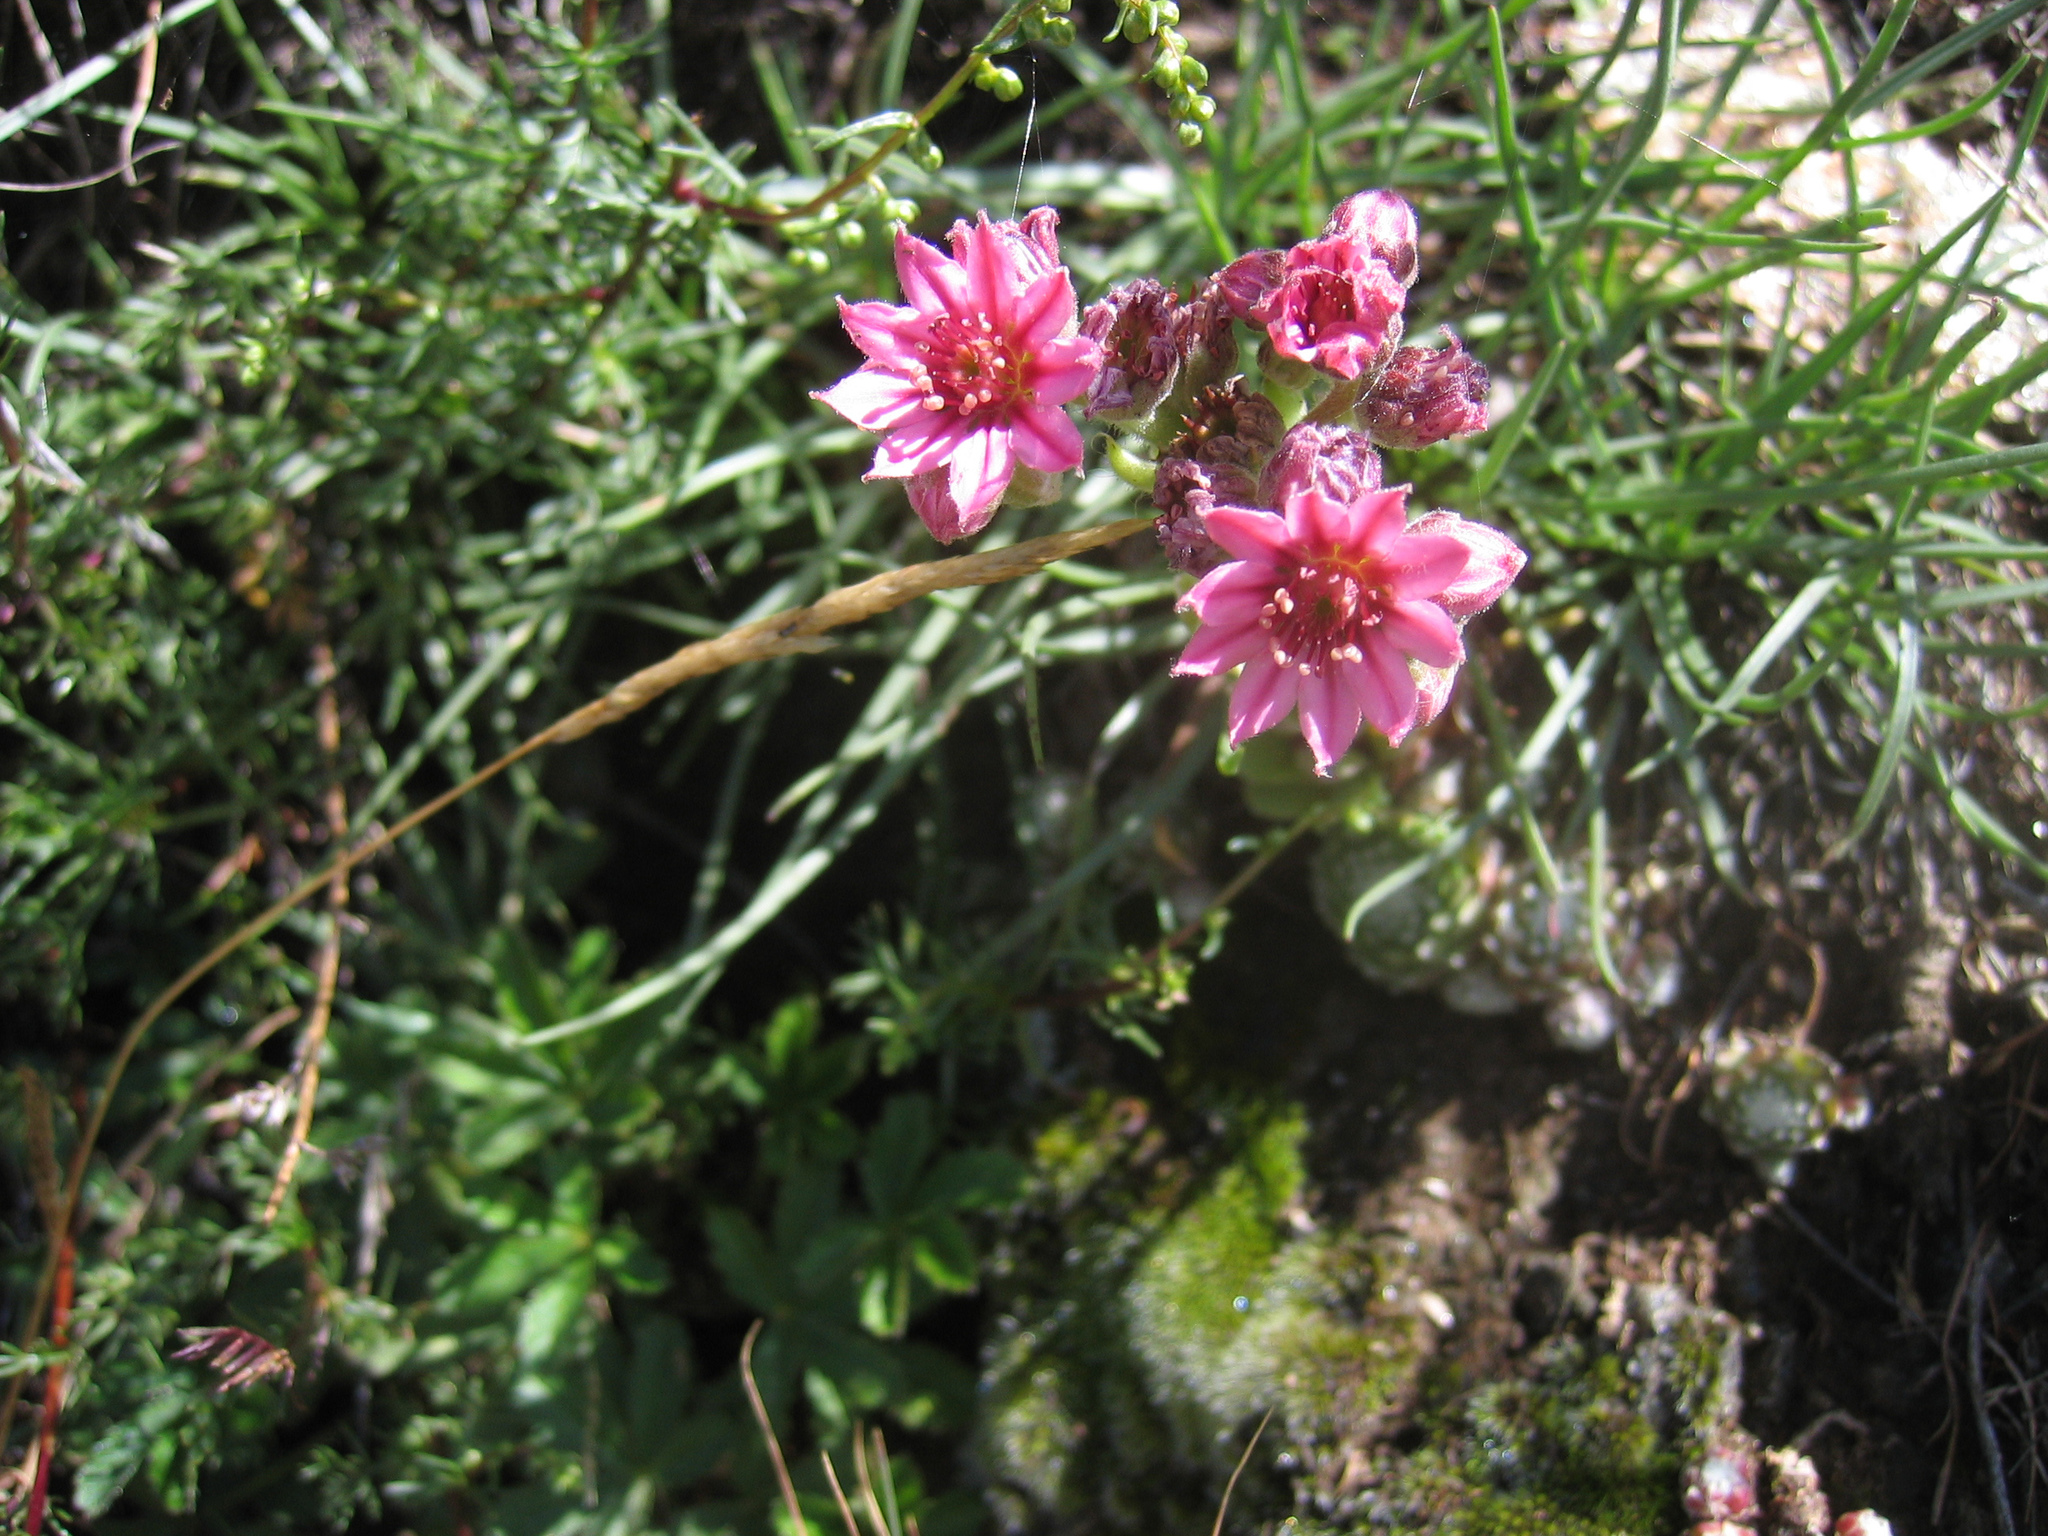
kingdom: Plantae
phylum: Tracheophyta
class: Magnoliopsida
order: Saxifragales
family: Crassulaceae
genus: Sempervivum
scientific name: Sempervivum arachnoideum
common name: Cobweb house-leek
